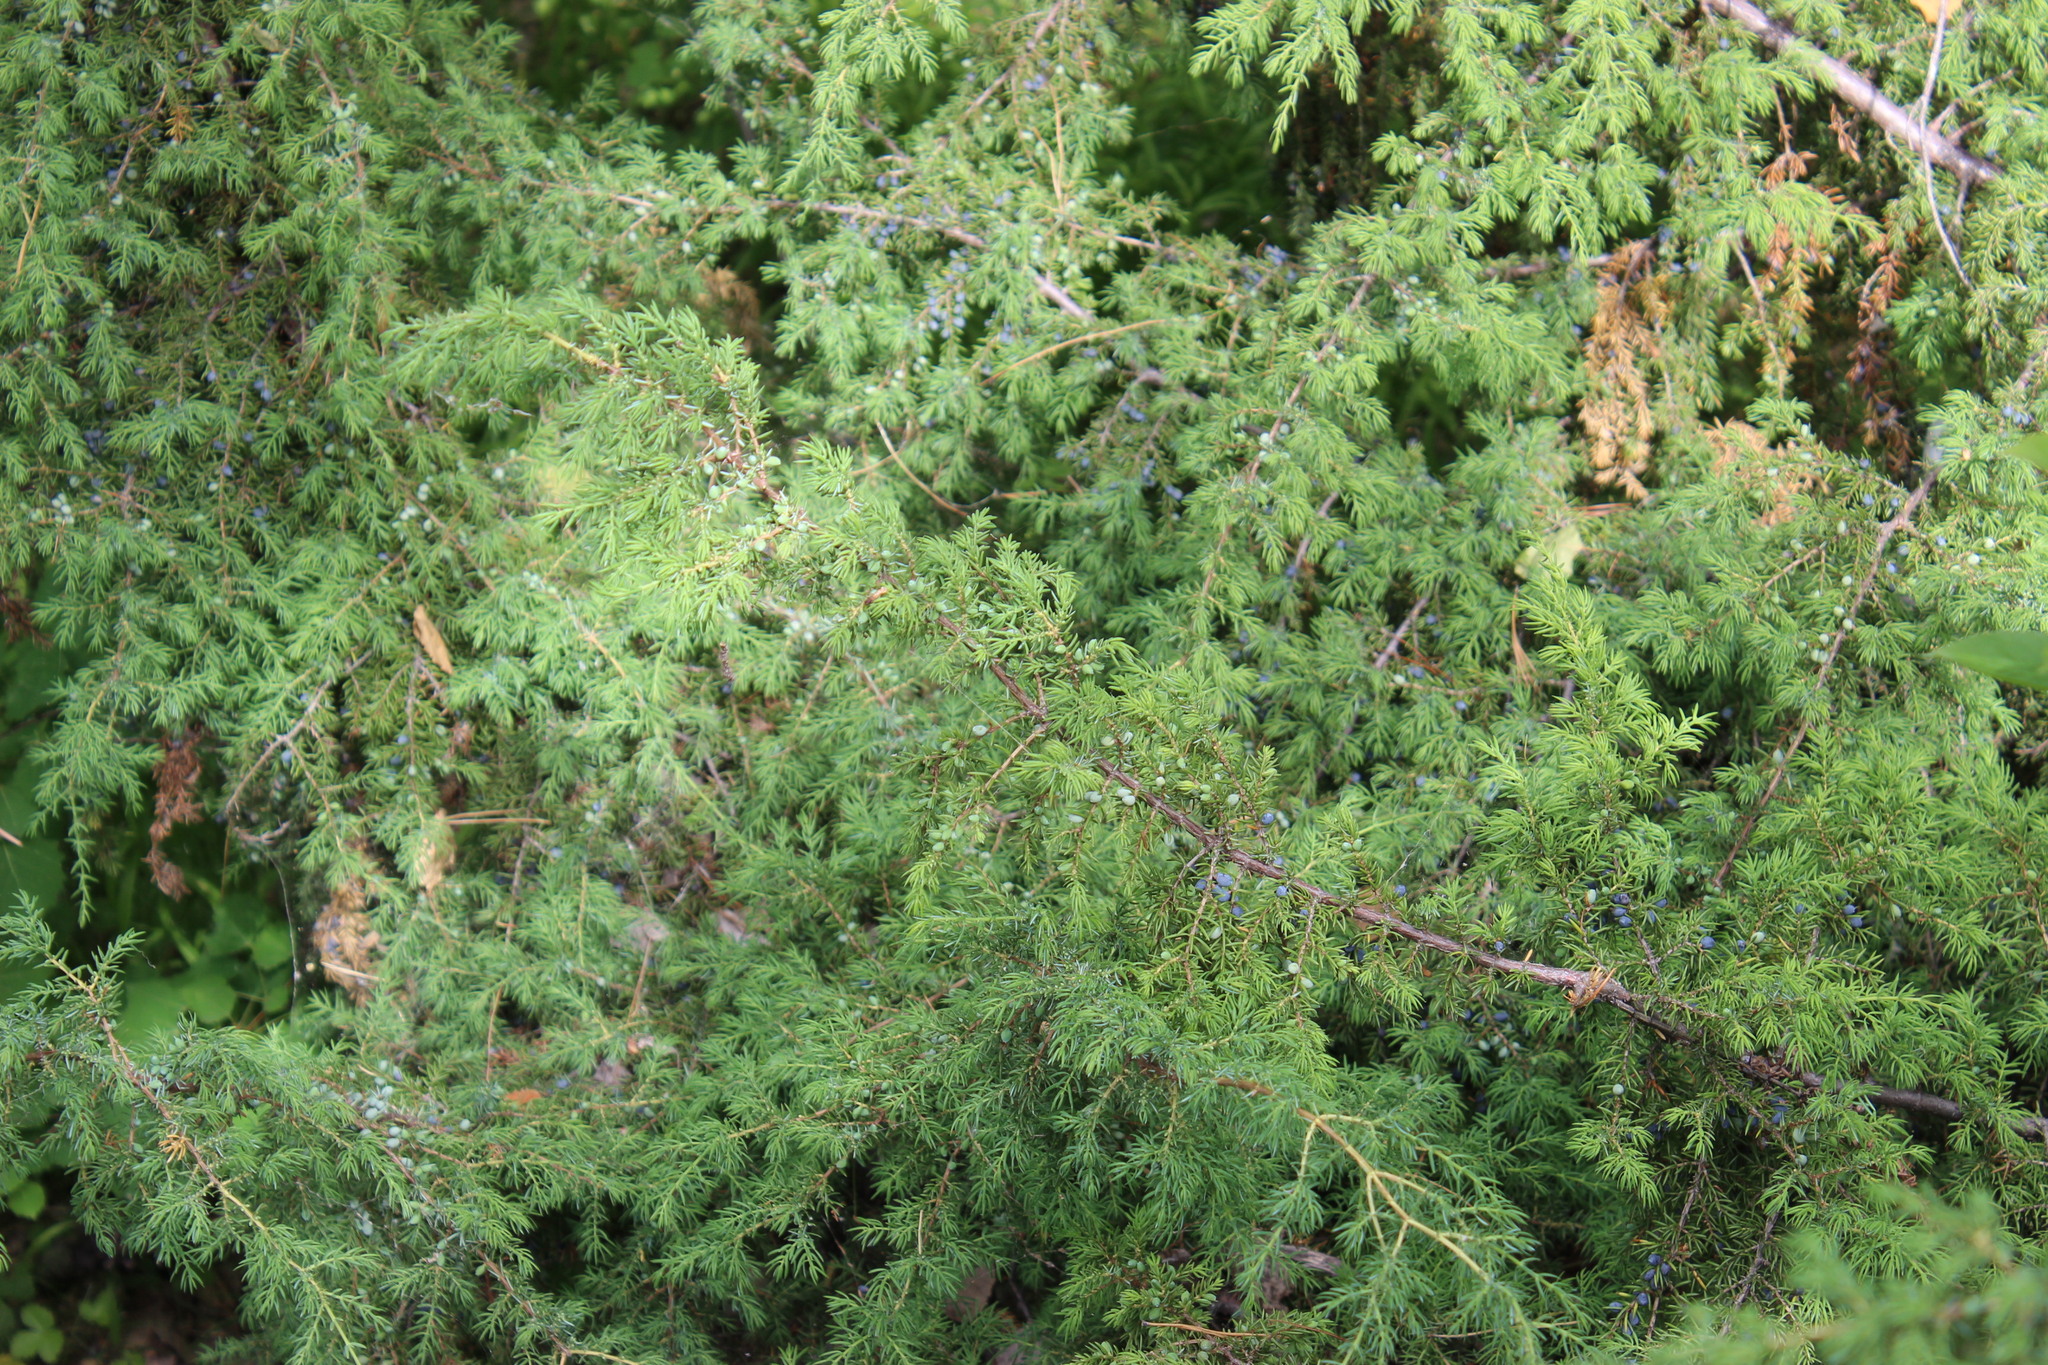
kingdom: Plantae
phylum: Tracheophyta
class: Pinopsida
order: Pinales
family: Cupressaceae
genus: Juniperus
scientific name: Juniperus communis
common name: Common juniper
